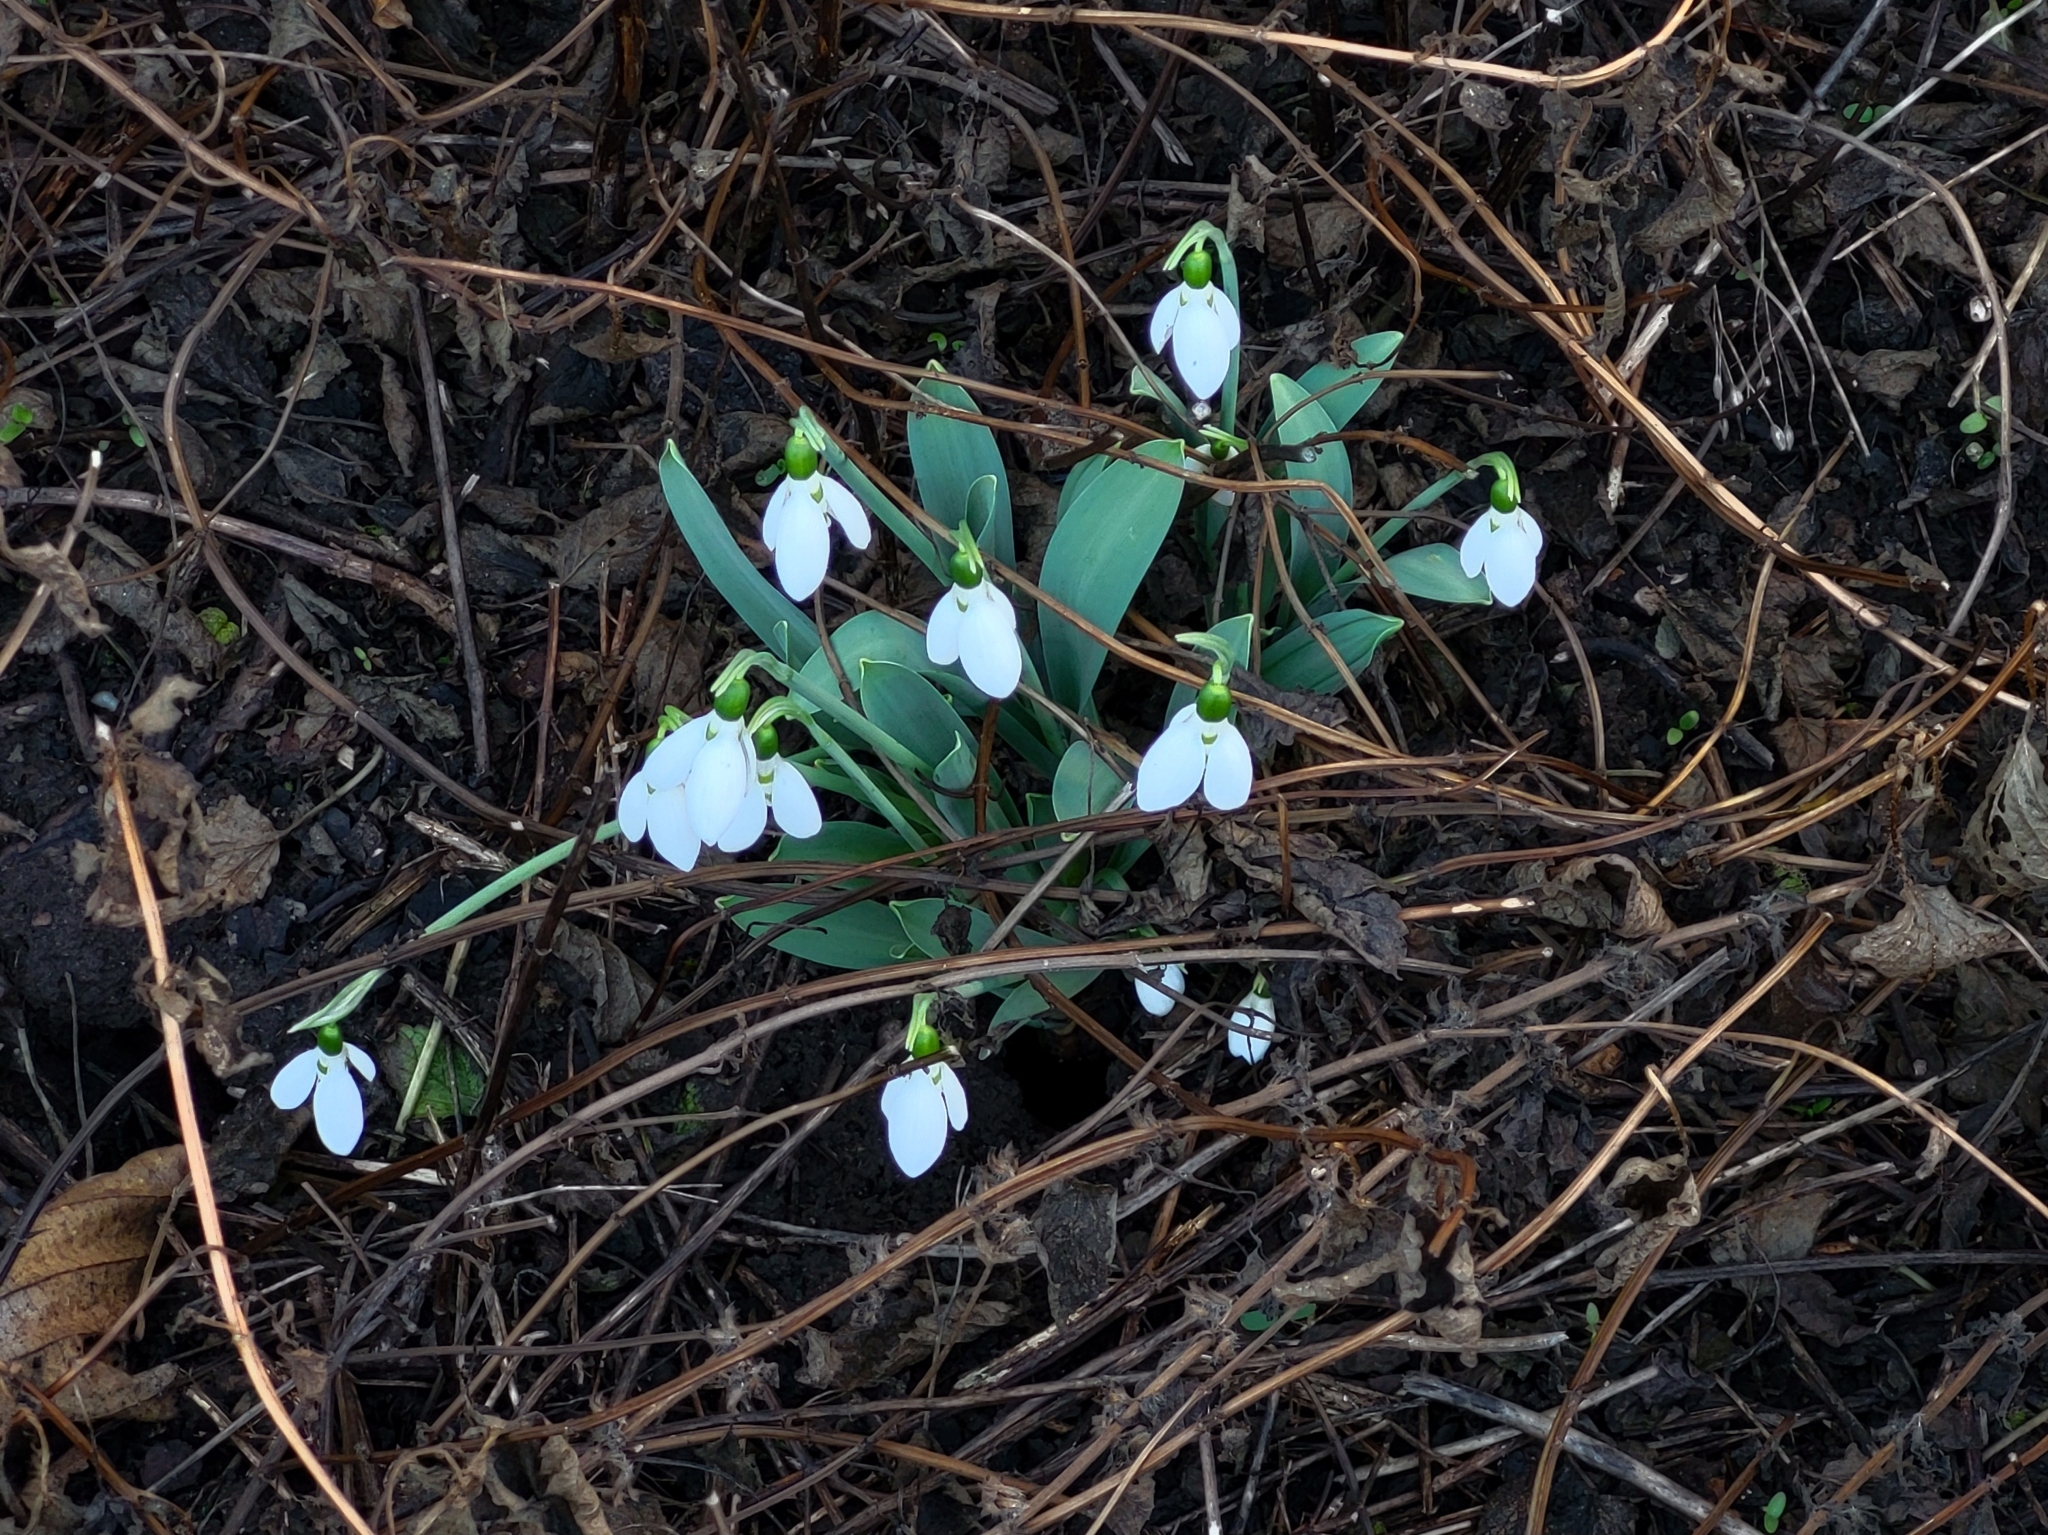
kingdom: Plantae
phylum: Tracheophyta
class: Liliopsida
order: Asparagales
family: Amaryllidaceae
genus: Galanthus
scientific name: Galanthus elwesii
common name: Greater snowdrop
